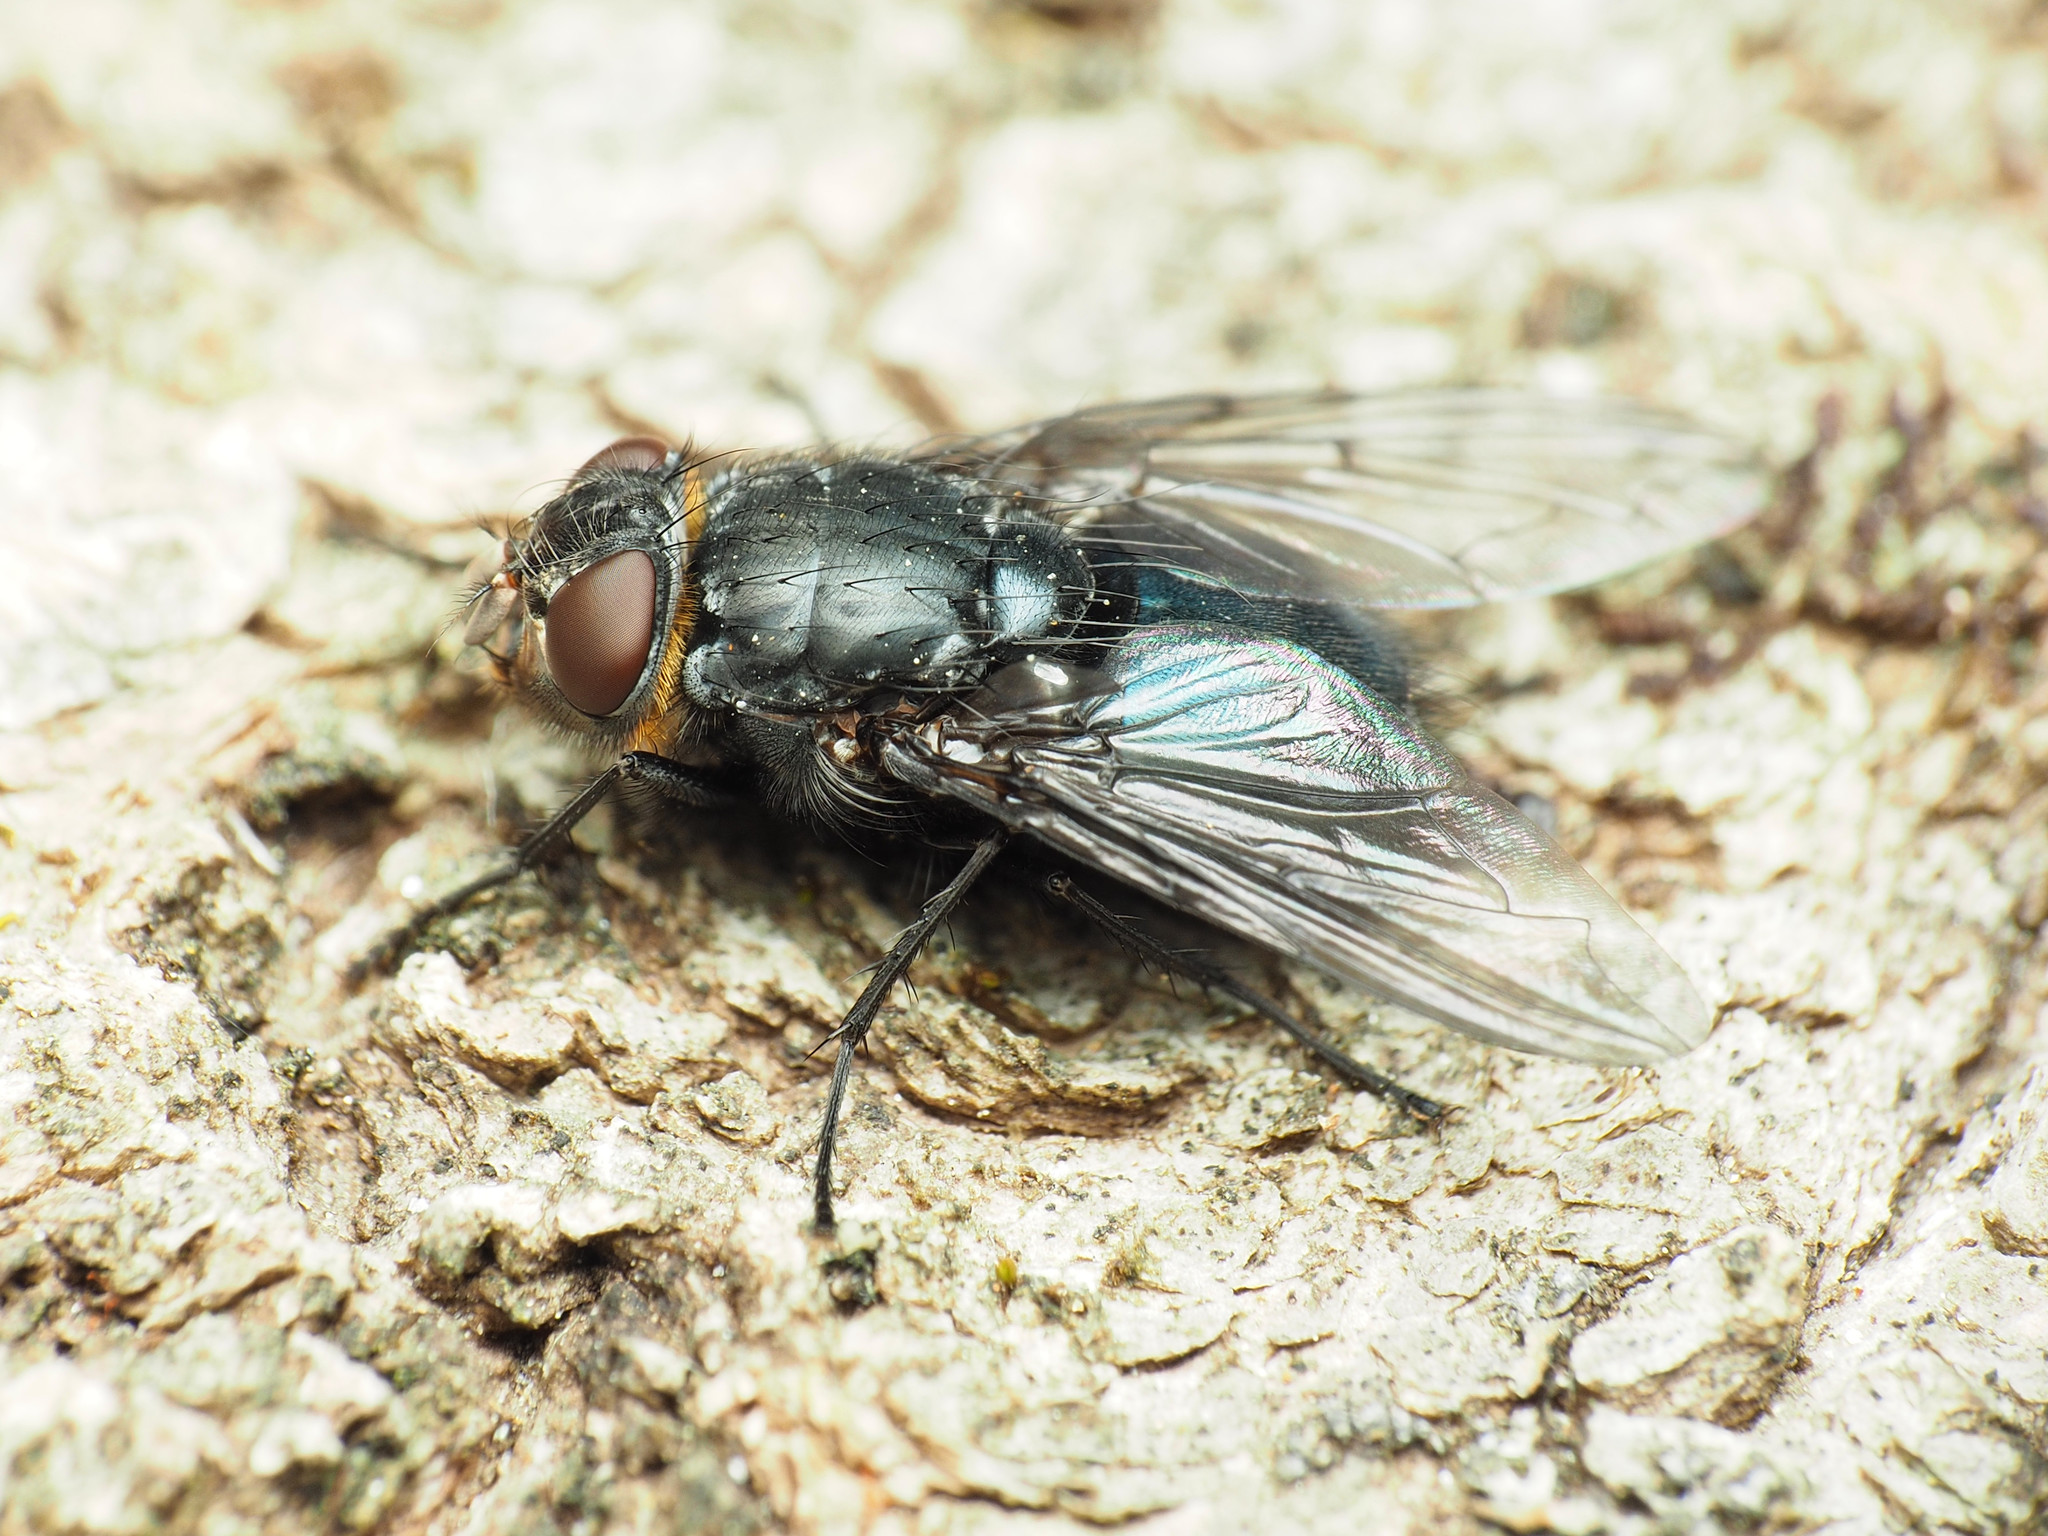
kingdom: Animalia
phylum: Arthropoda
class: Insecta
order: Diptera
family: Calliphoridae
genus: Calliphora
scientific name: Calliphora vomitoria
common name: Blue bottle fly
